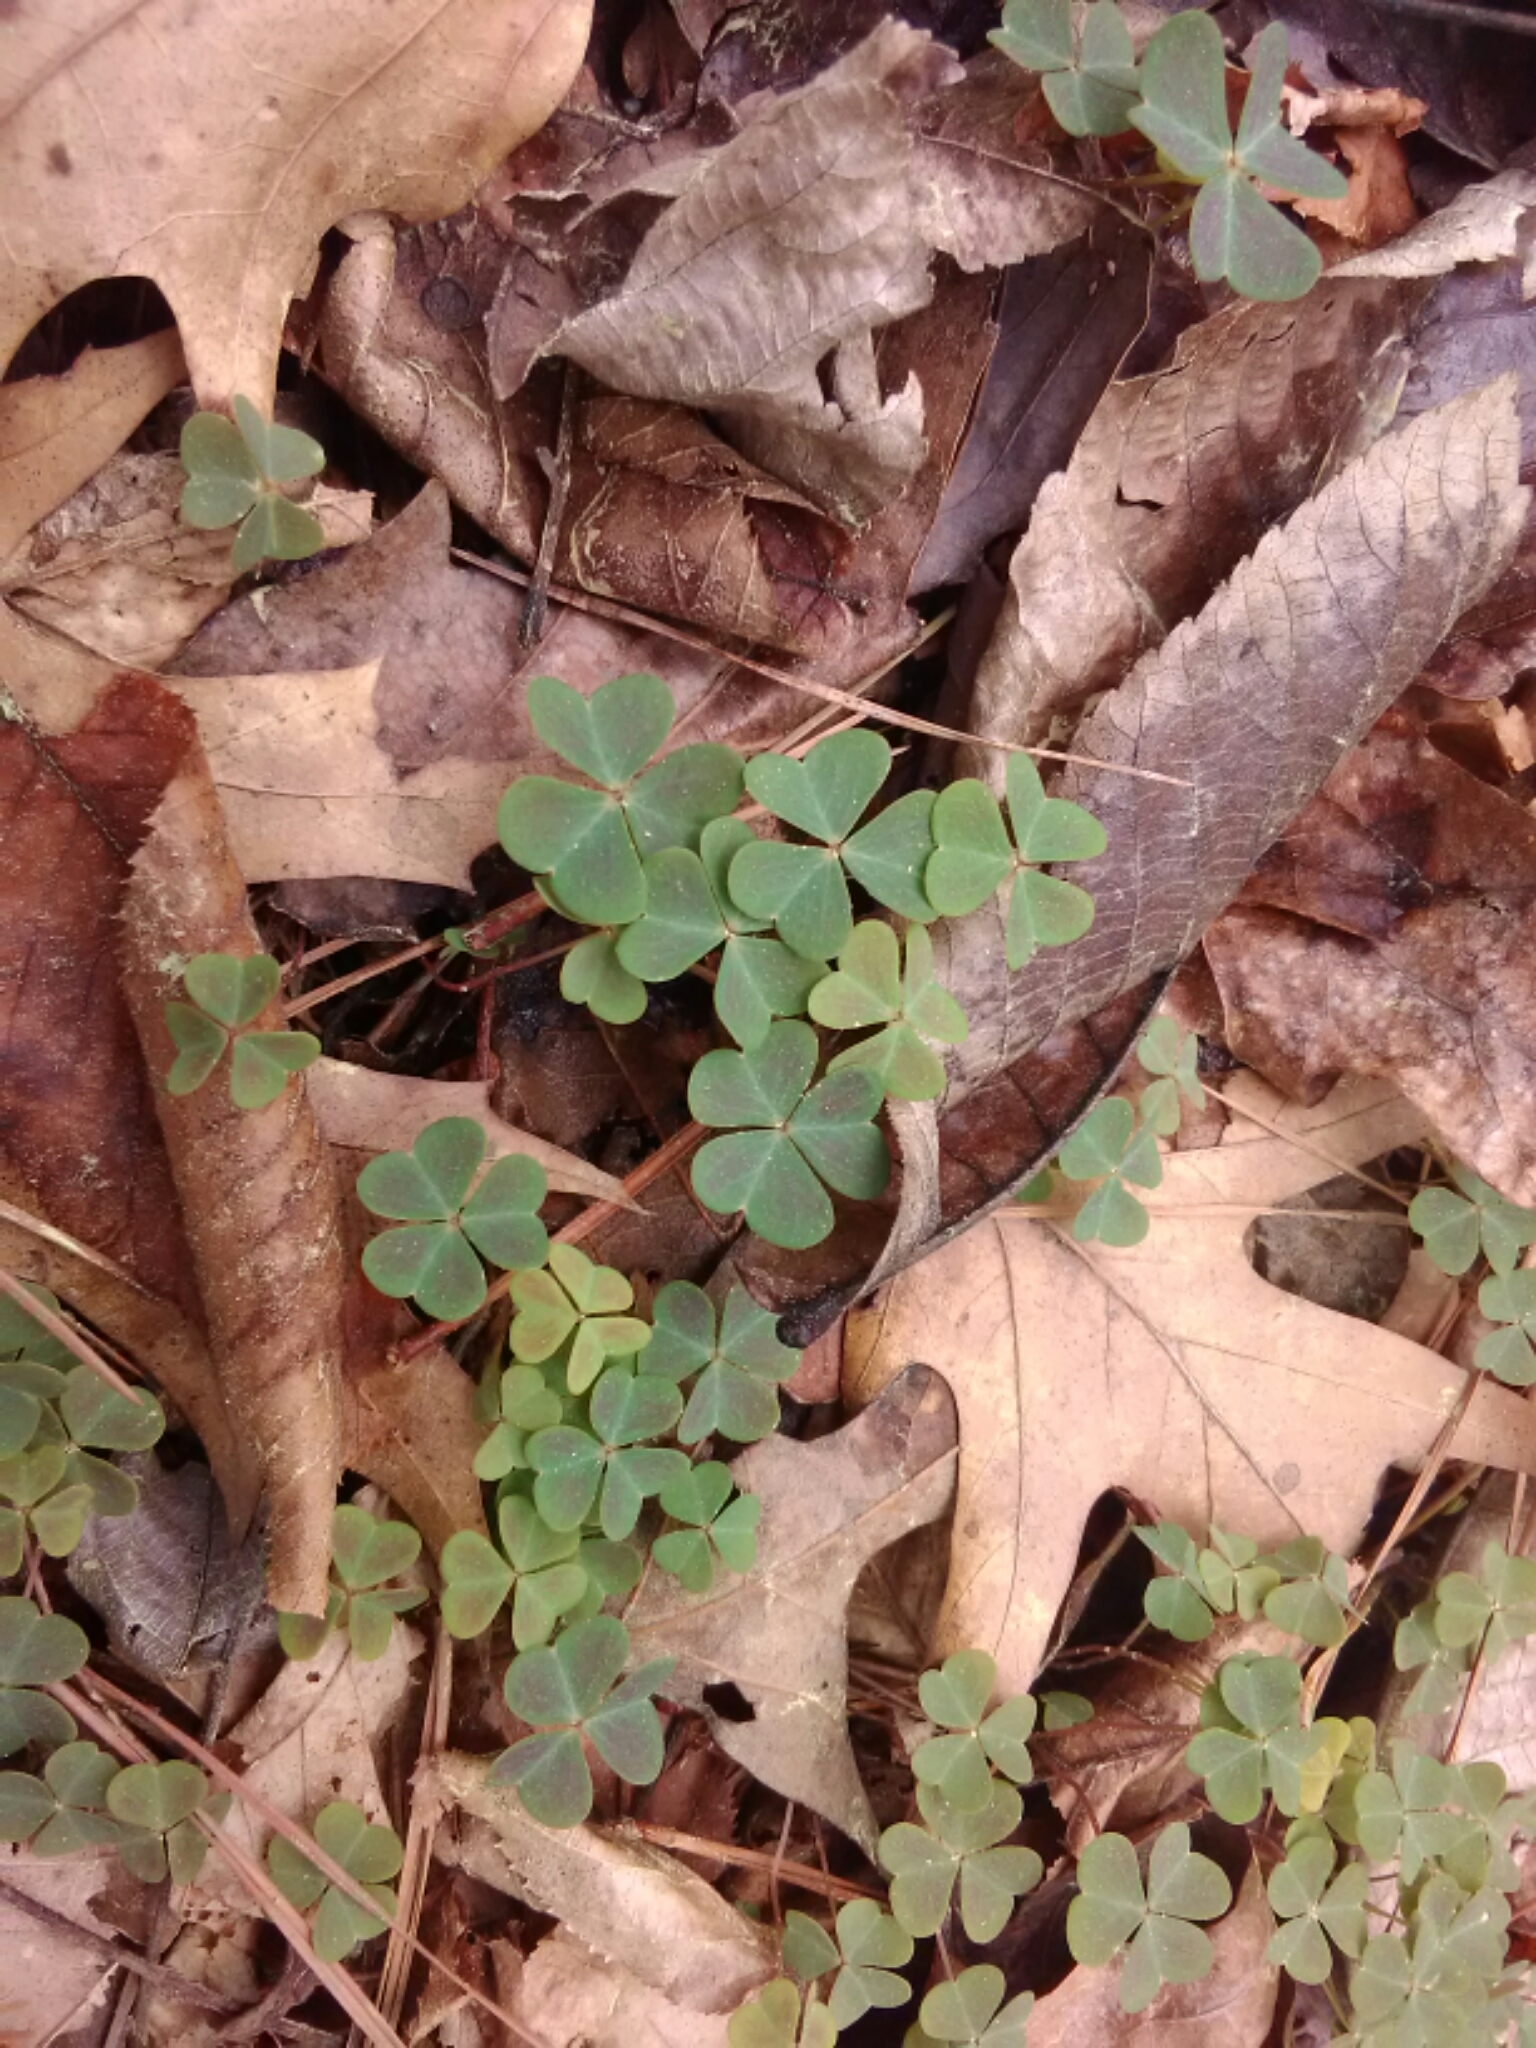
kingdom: Plantae
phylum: Tracheophyta
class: Magnoliopsida
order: Oxalidales
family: Oxalidaceae
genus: Oxalis
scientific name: Oxalis violacea
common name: Violet wood-sorrel
